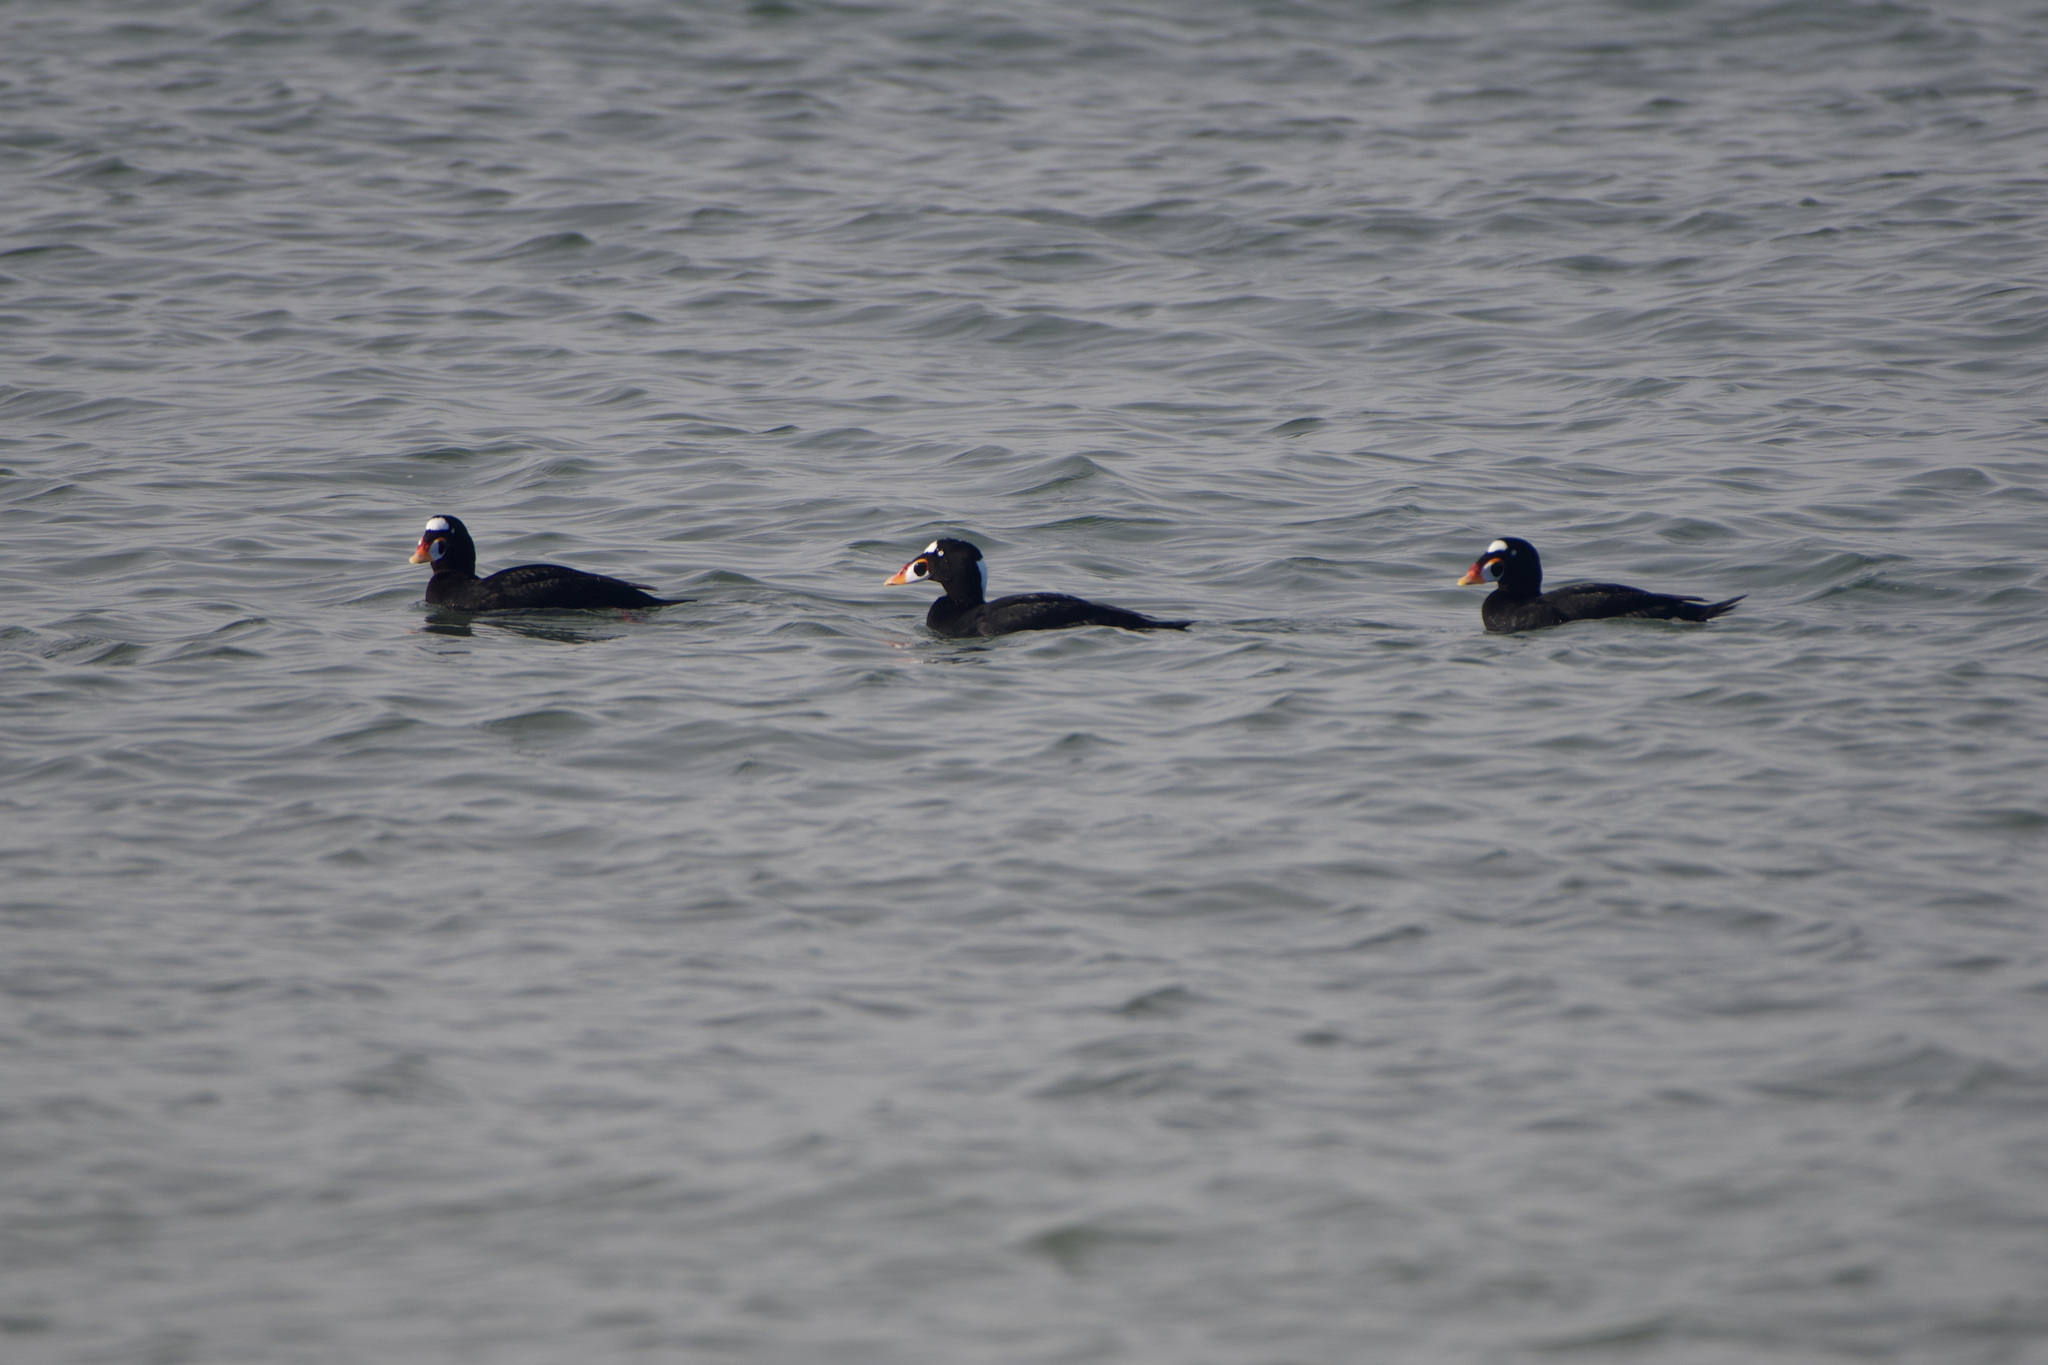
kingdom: Animalia
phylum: Chordata
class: Aves
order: Anseriformes
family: Anatidae
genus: Melanitta
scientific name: Melanitta perspicillata
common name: Surf scoter
